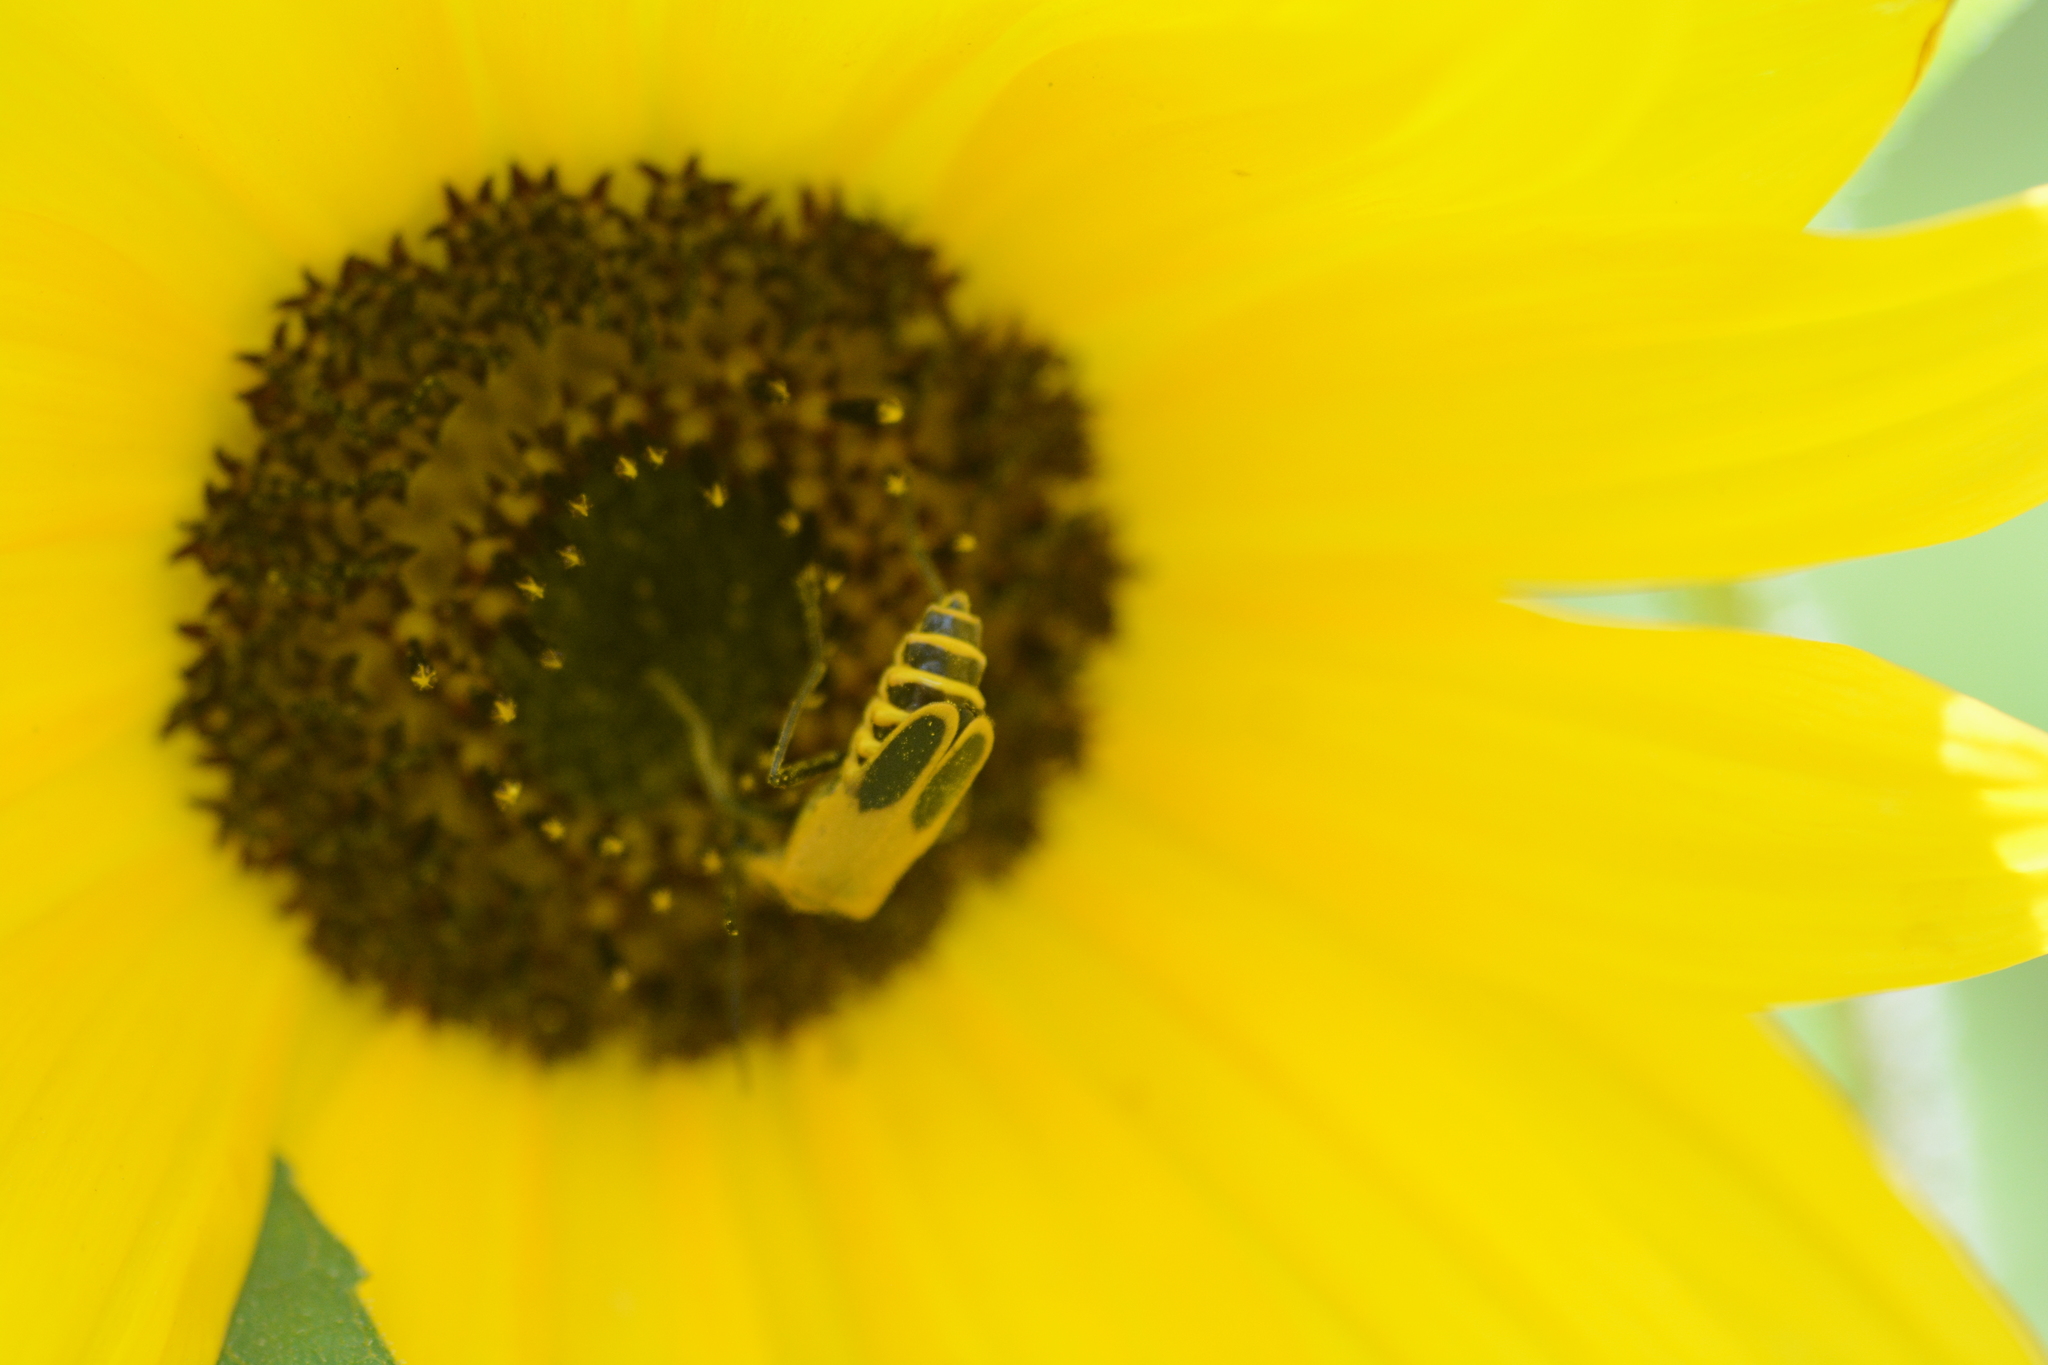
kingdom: Animalia
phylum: Arthropoda
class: Insecta
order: Coleoptera
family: Cantharidae
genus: Chauliognathus
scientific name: Chauliognathus pensylvanicus
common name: Goldenrod soldier beetle
